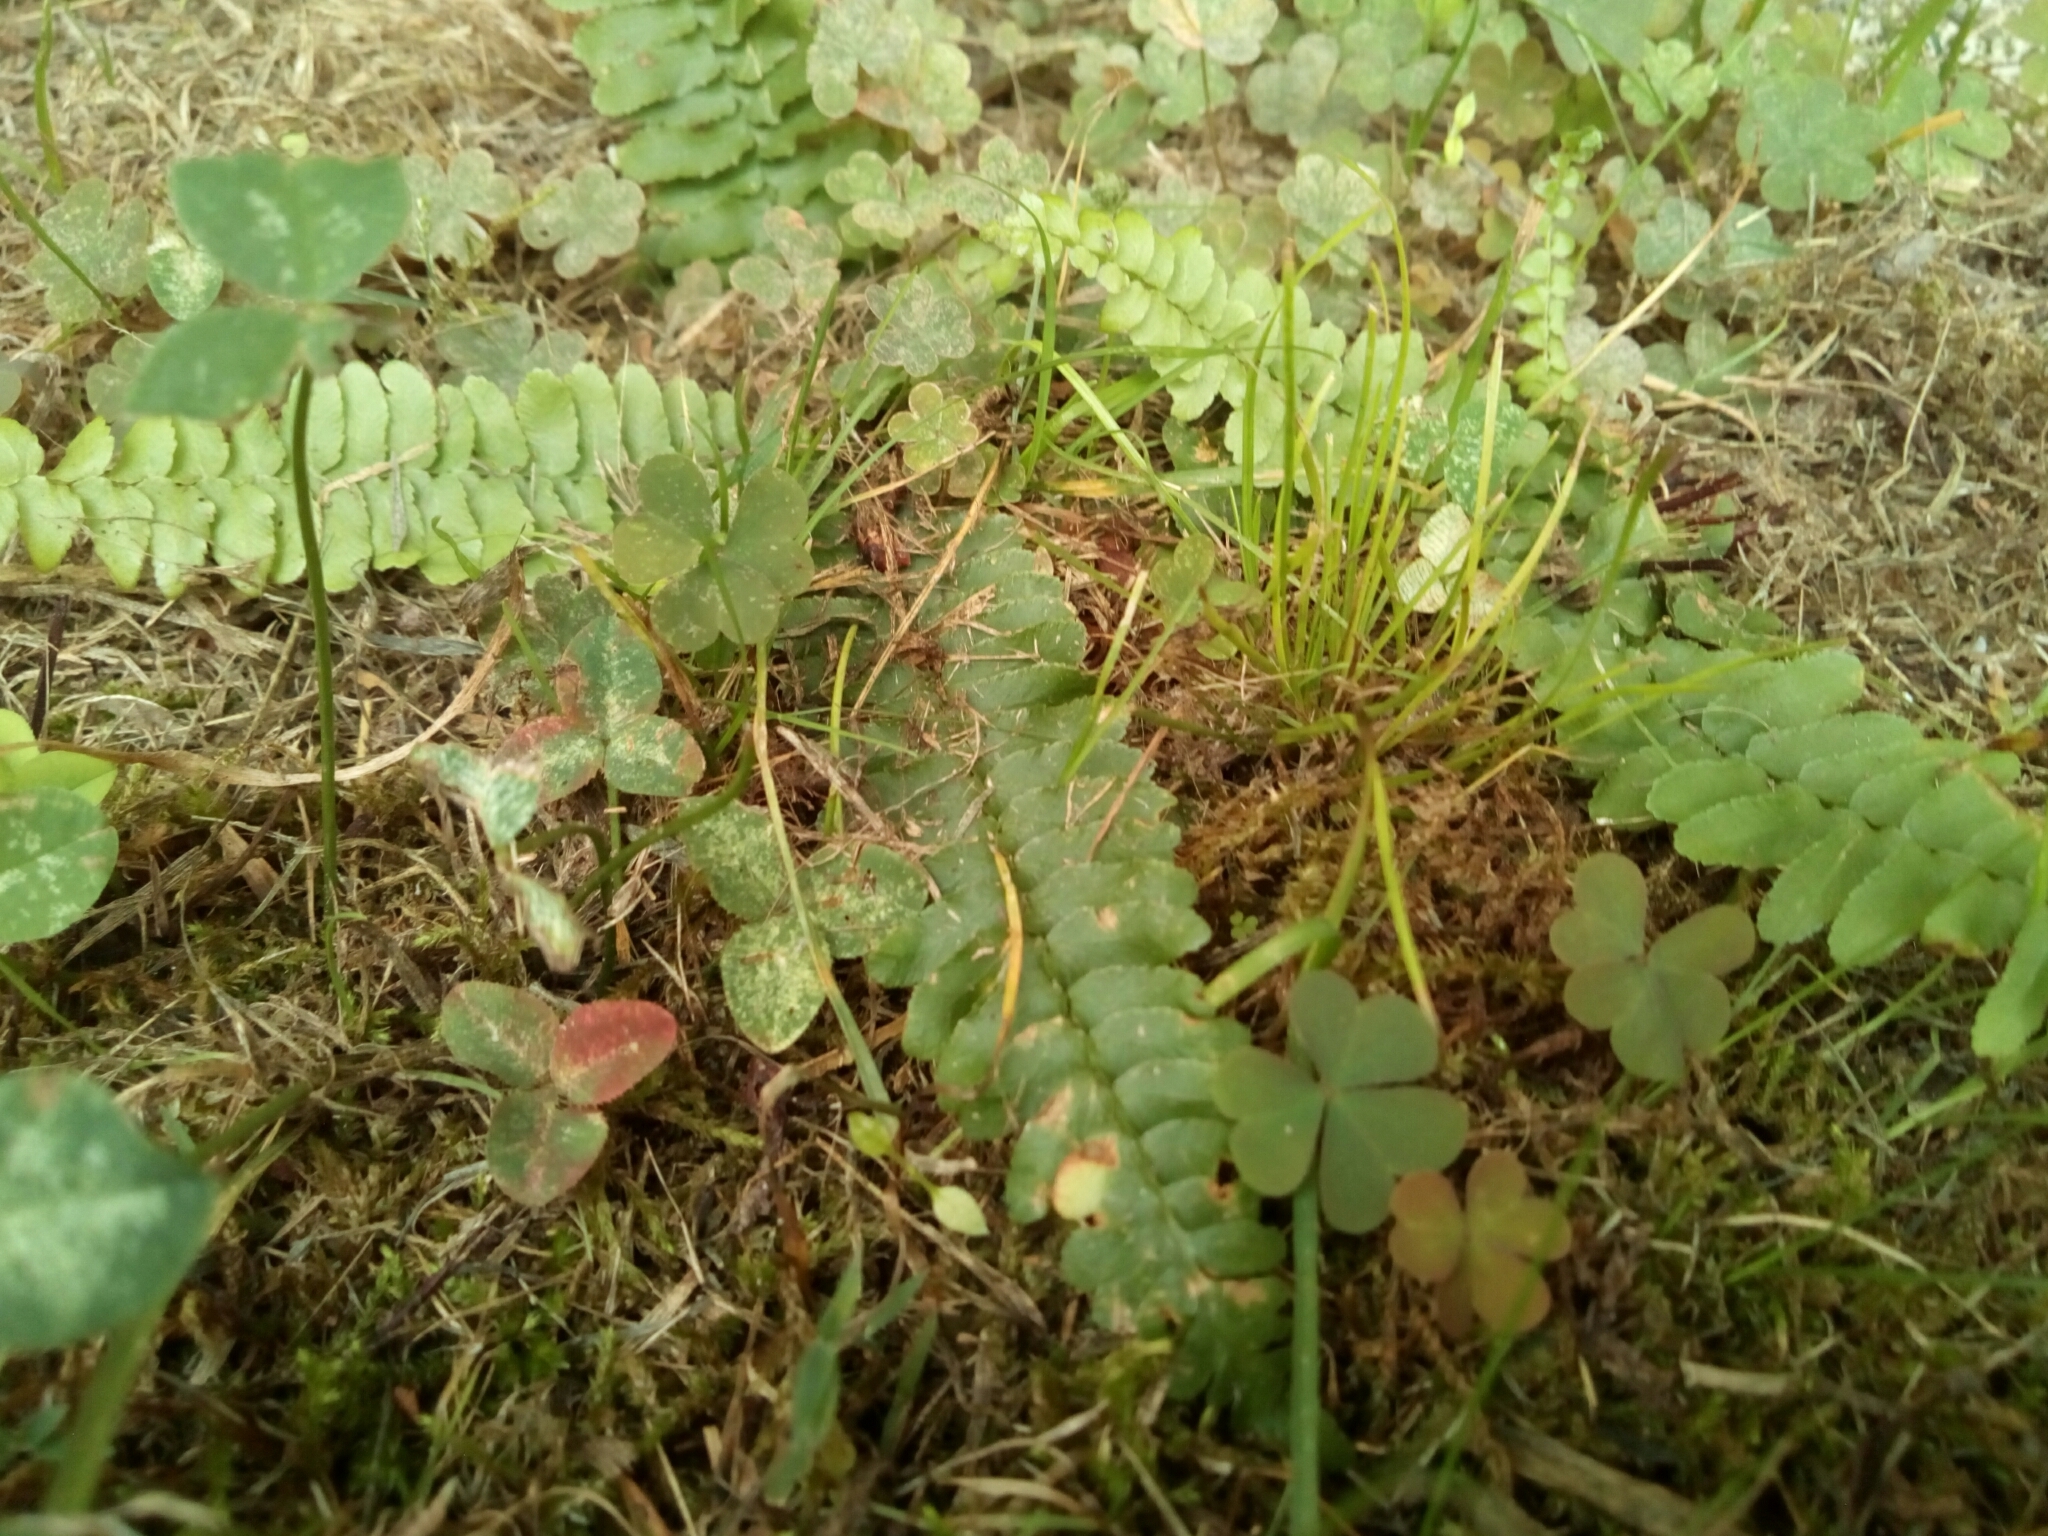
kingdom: Plantae
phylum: Tracheophyta
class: Polypodiopsida
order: Polypodiales
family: Aspleniaceae
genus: Asplenium
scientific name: Asplenium platyneuron
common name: Ebony spleenwort
